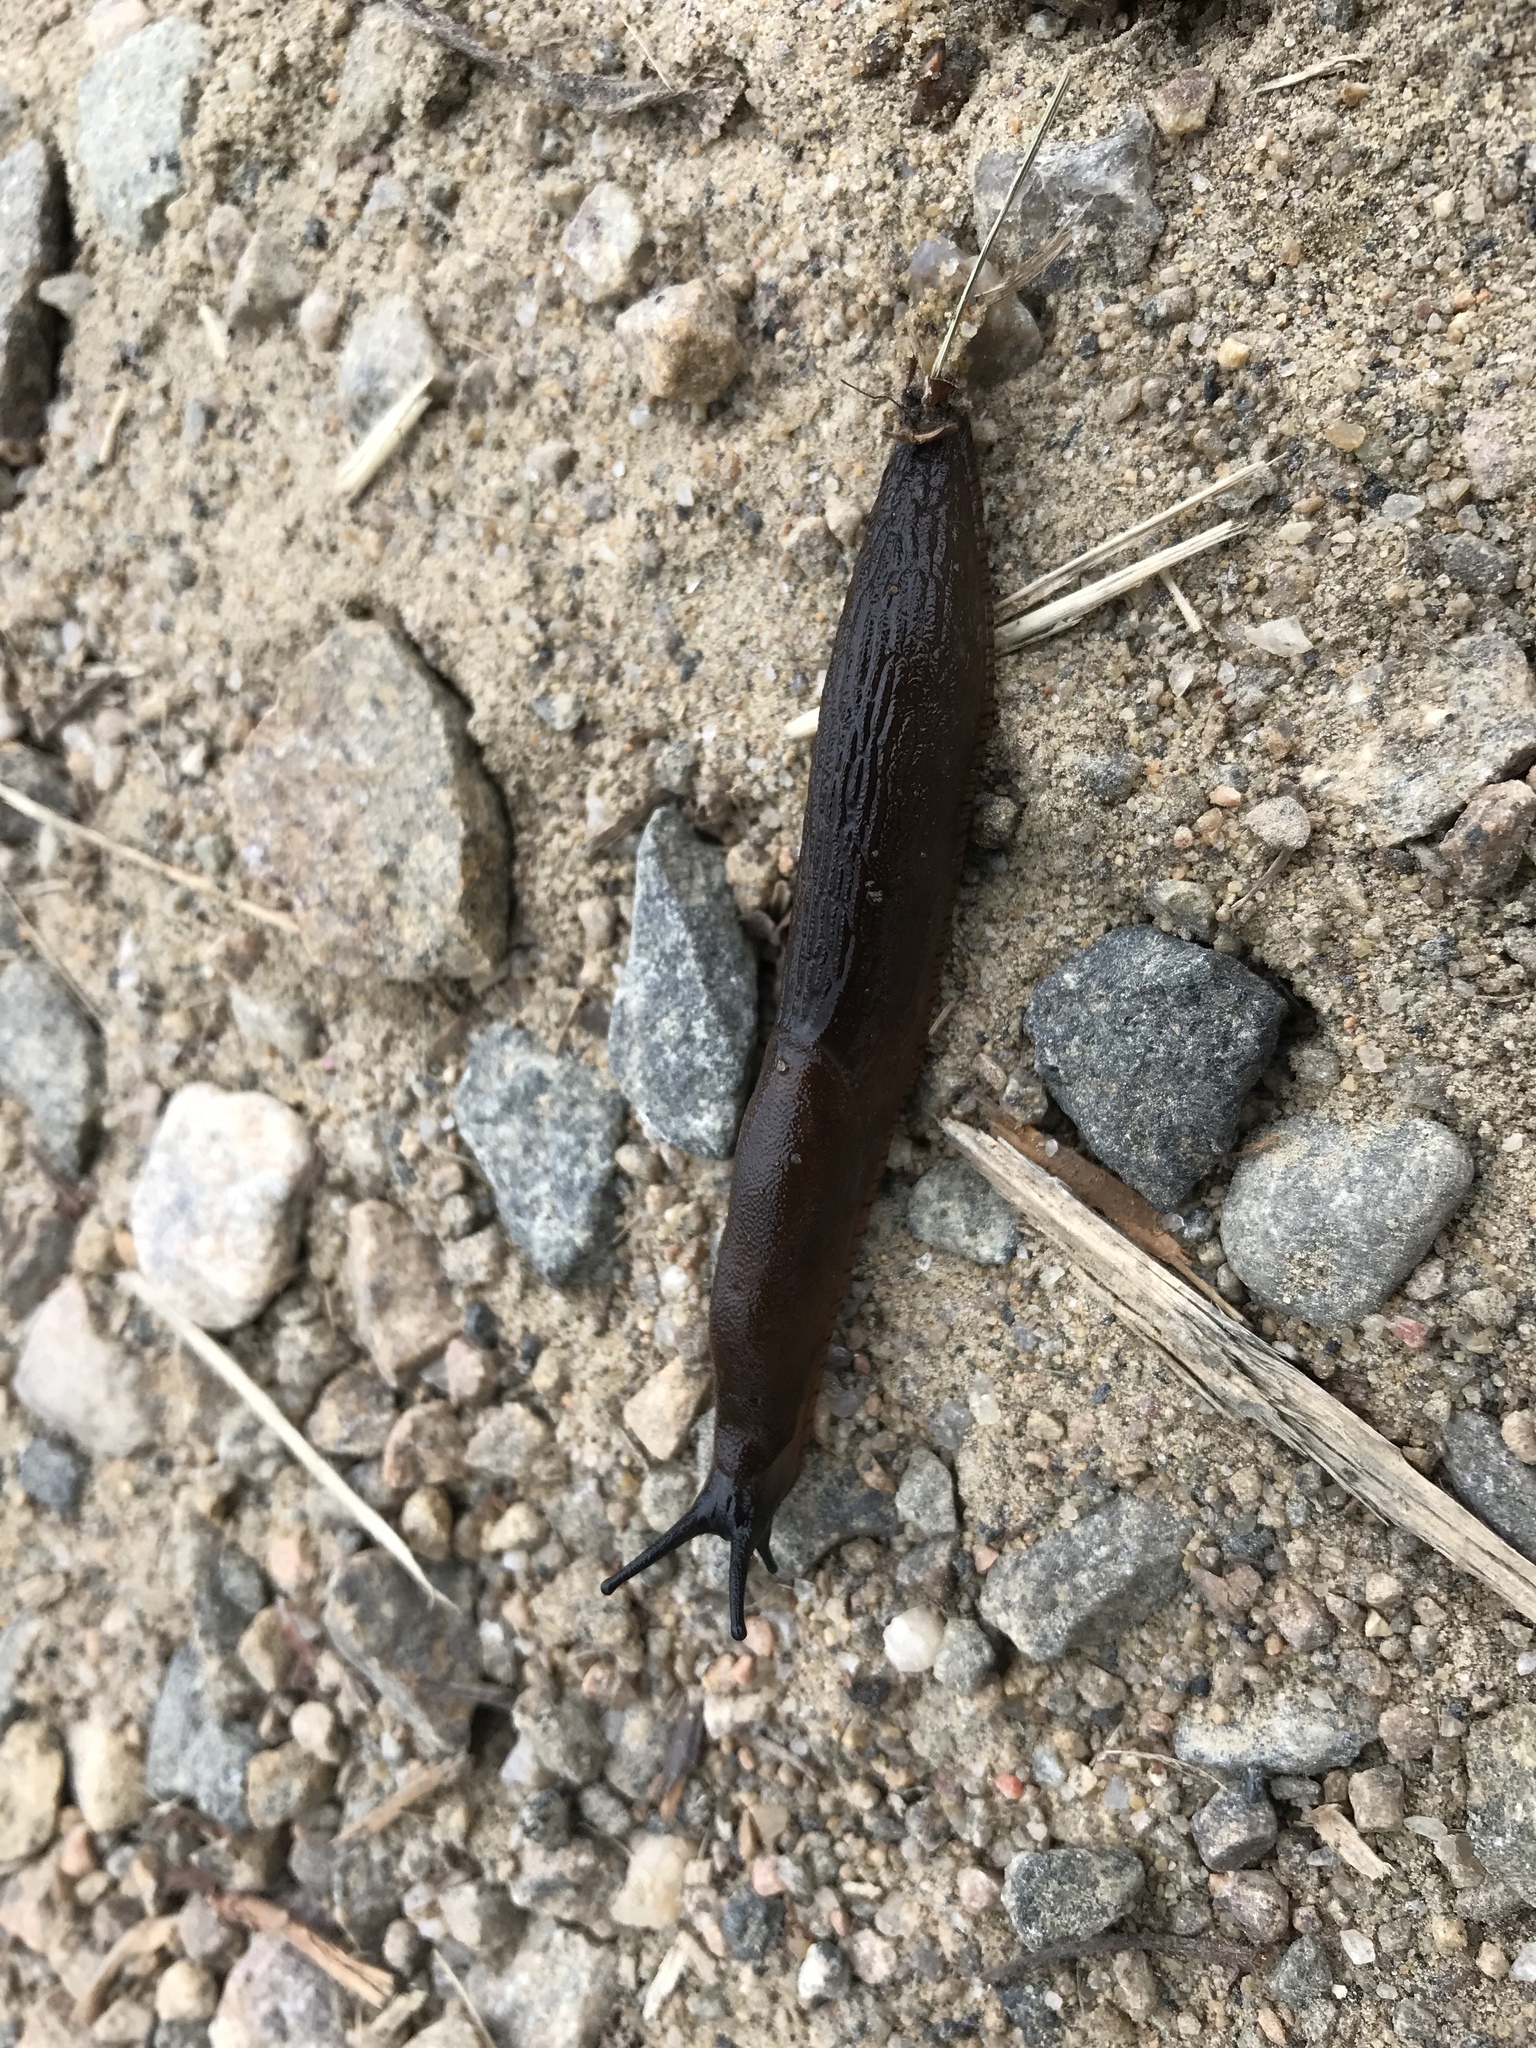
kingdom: Animalia
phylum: Mollusca
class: Gastropoda
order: Stylommatophora
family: Arionidae
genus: Arion
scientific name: Arion ater
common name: Black arion
